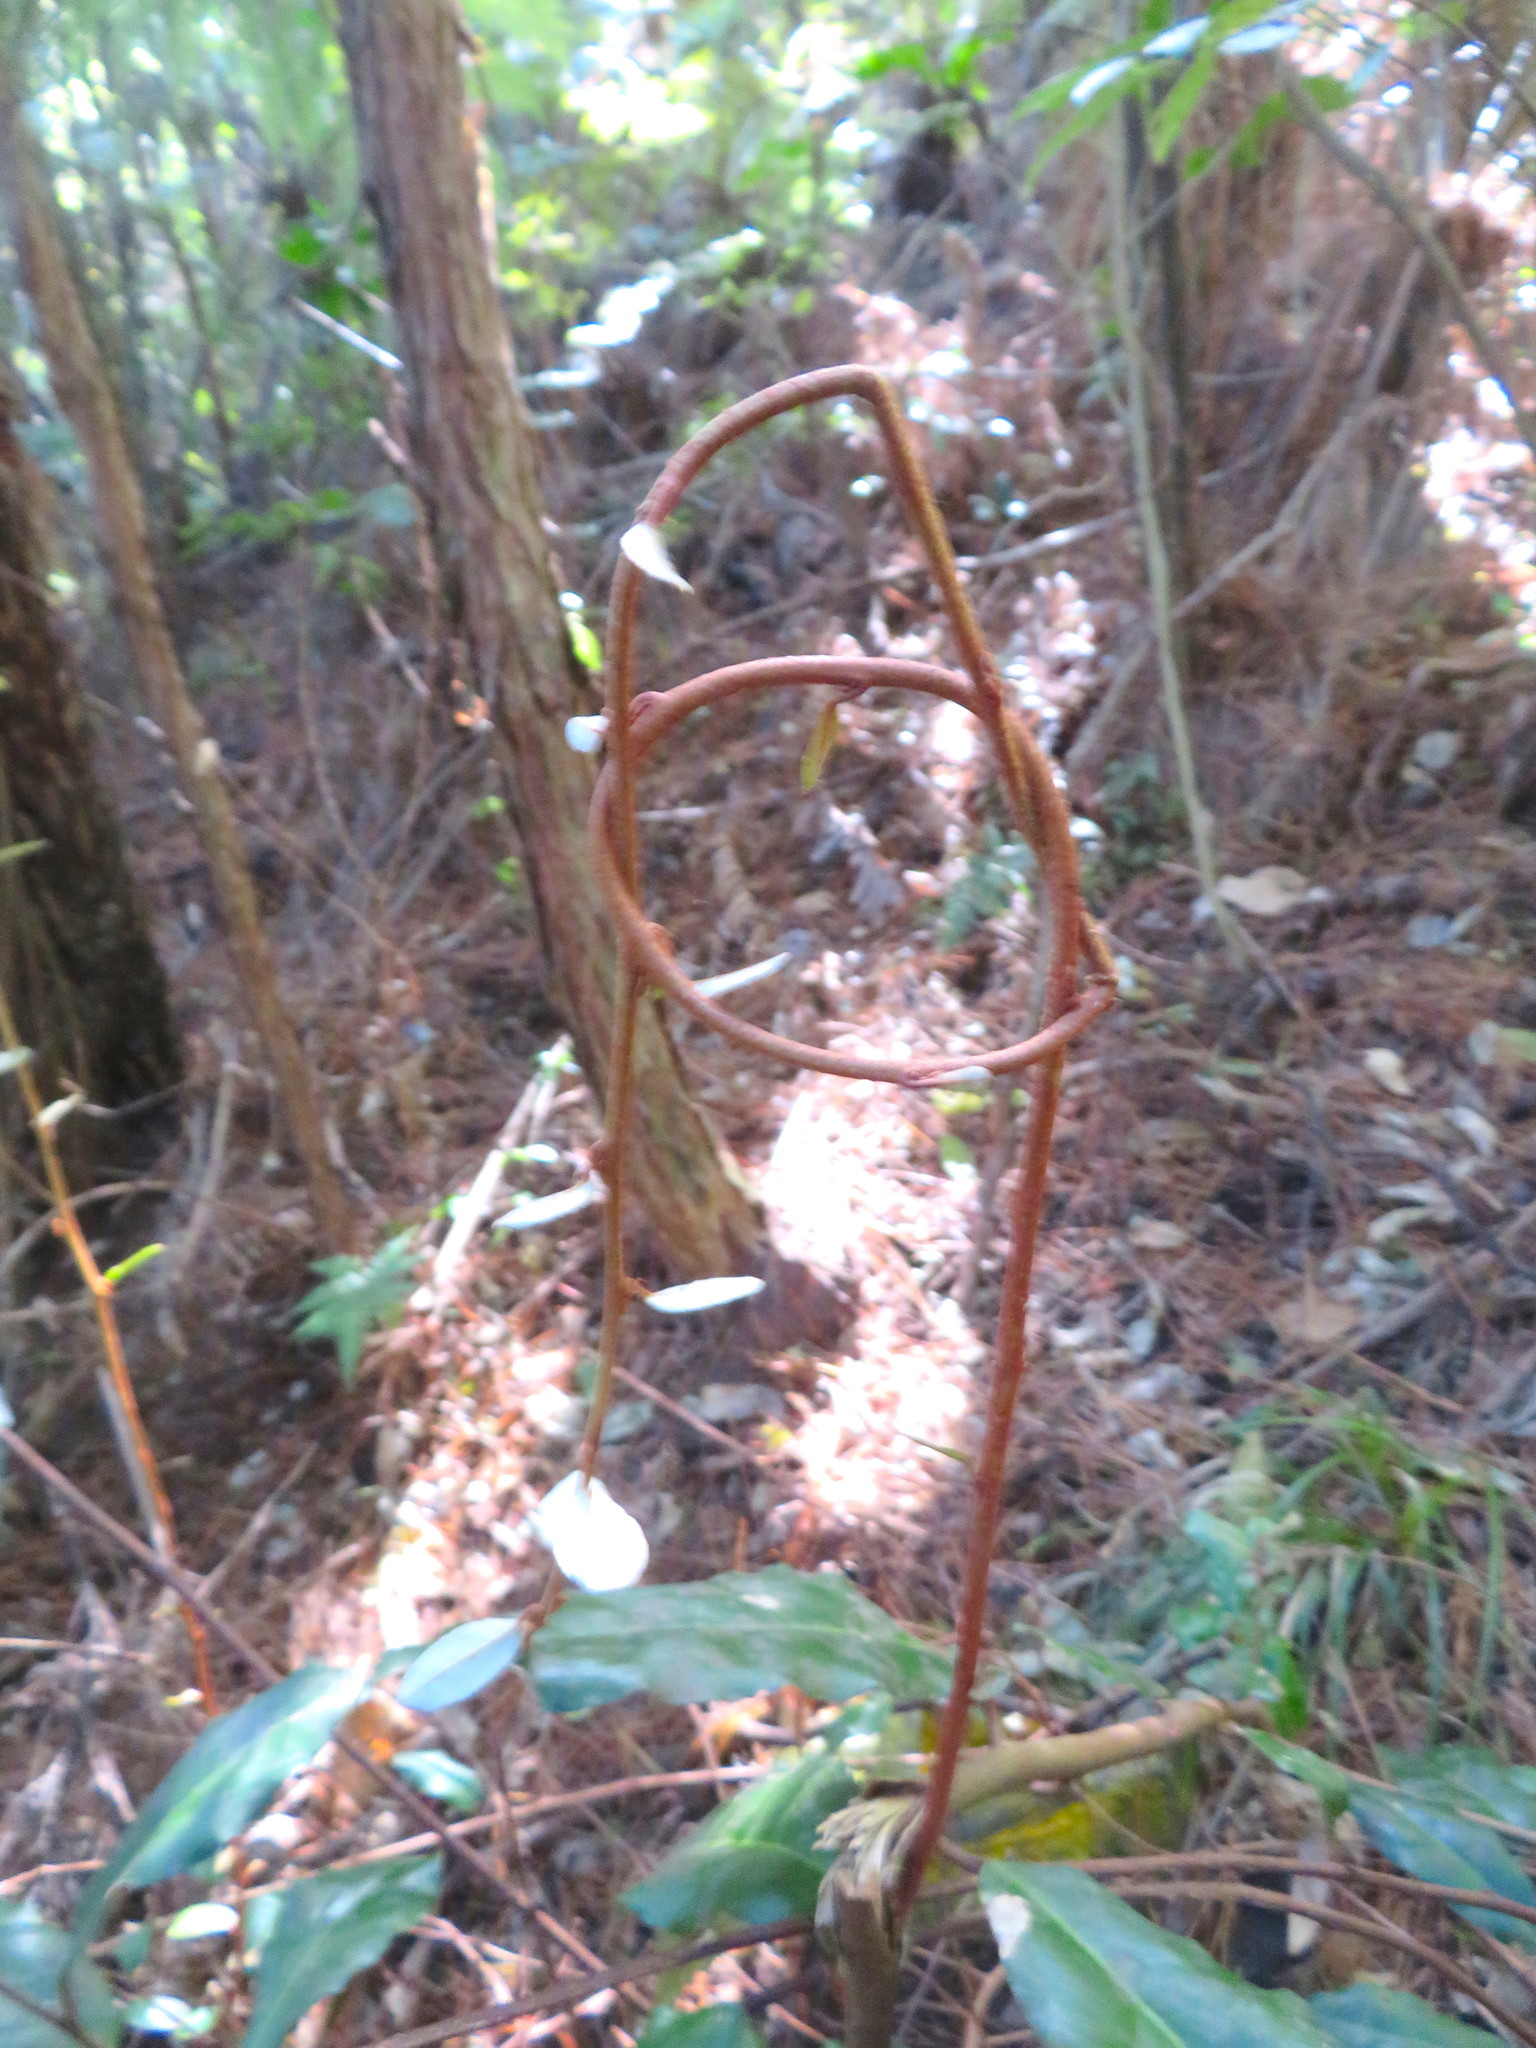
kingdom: Plantae
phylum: Tracheophyta
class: Magnoliopsida
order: Rosales
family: Elaeagnaceae
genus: Elaeagnus
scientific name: Elaeagnus reflexa
